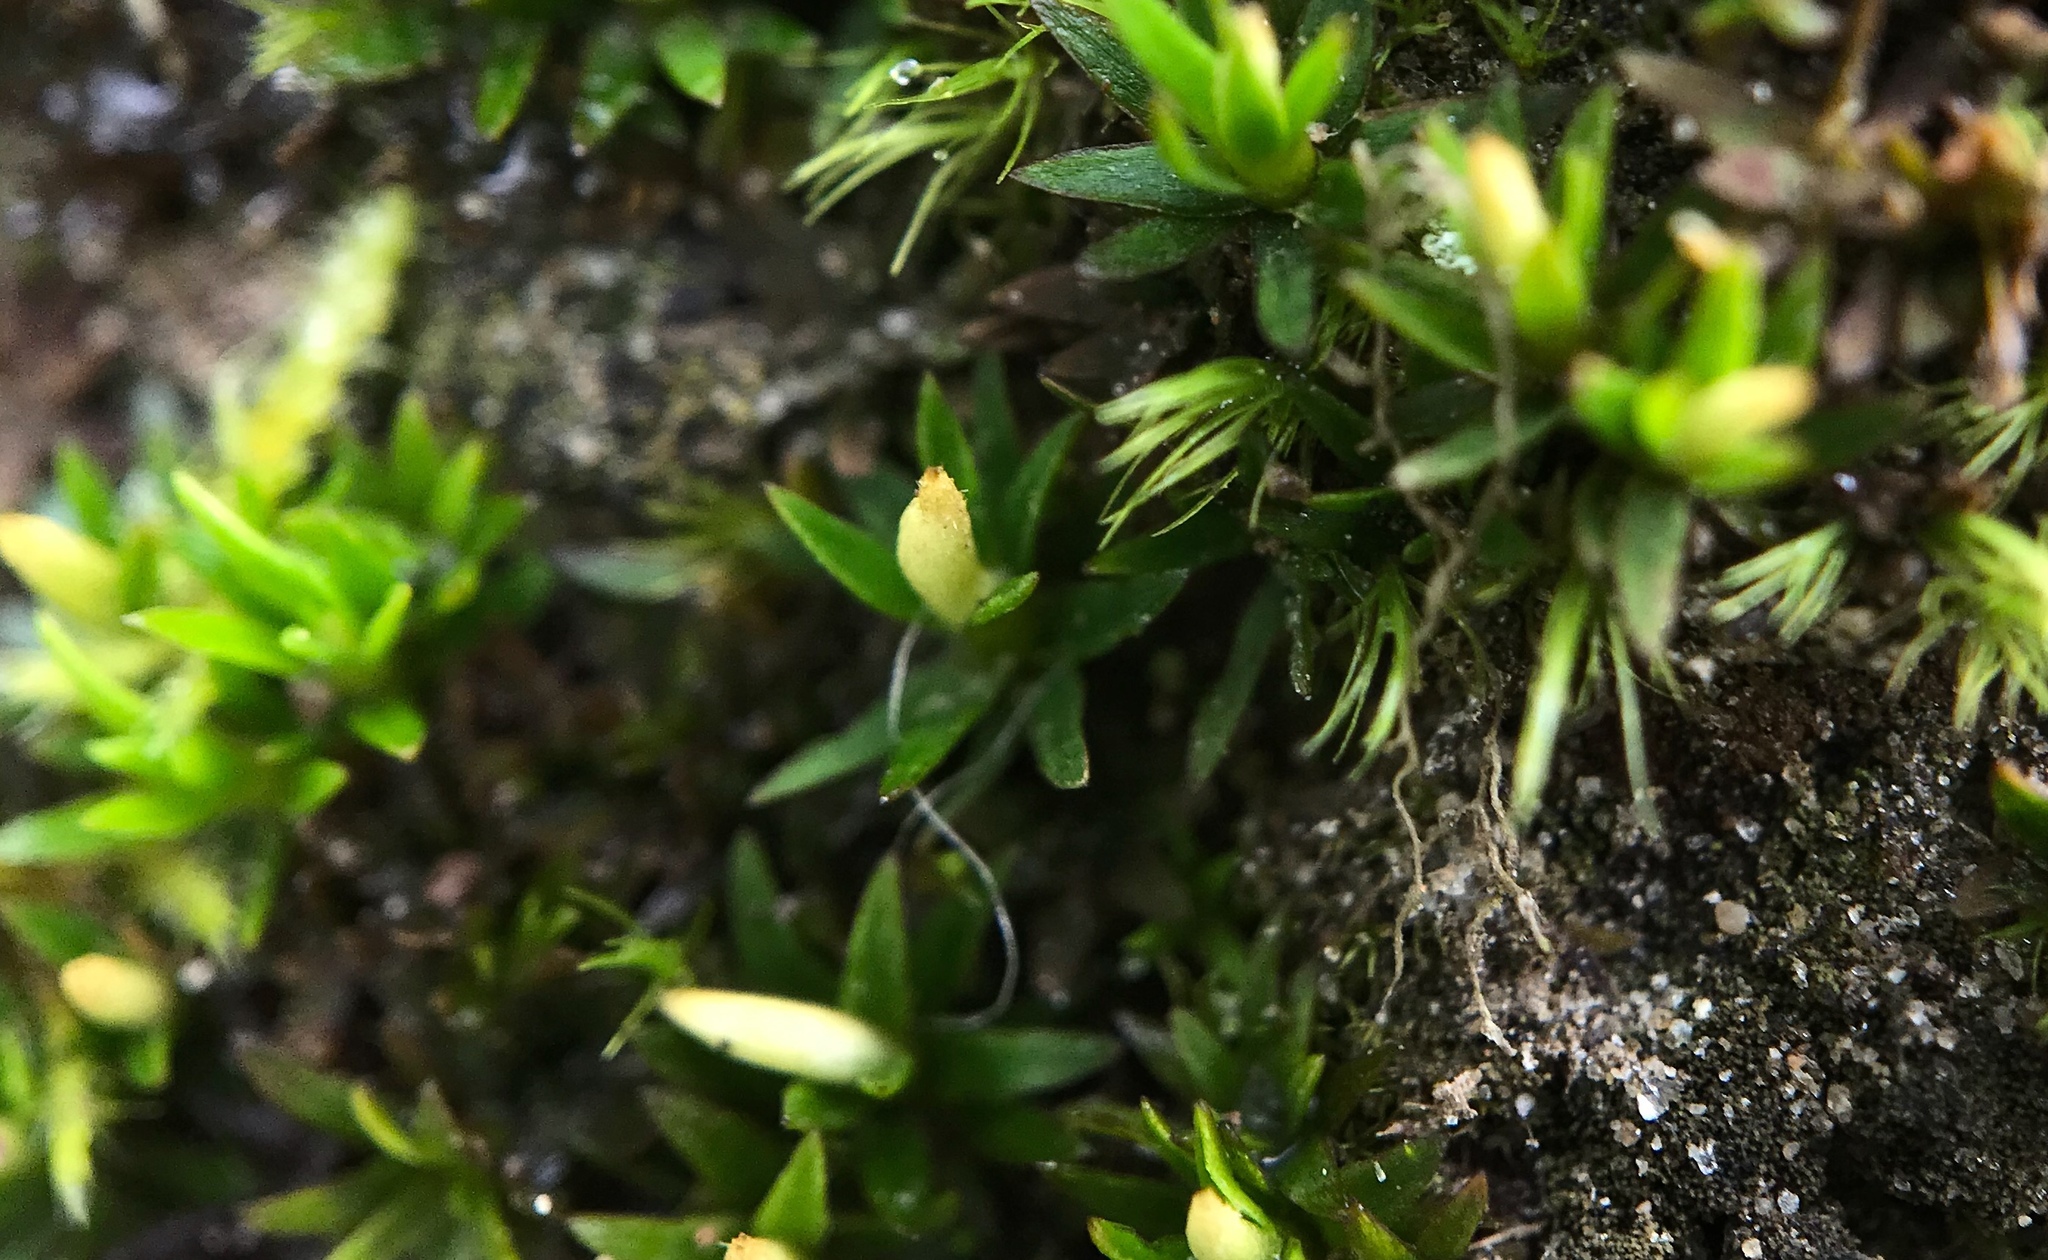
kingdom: Plantae
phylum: Bryophyta
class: Polytrichopsida
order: Polytrichales
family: Polytrichaceae
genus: Pogonatum
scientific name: Pogonatum aloides
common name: Aloe haircap
